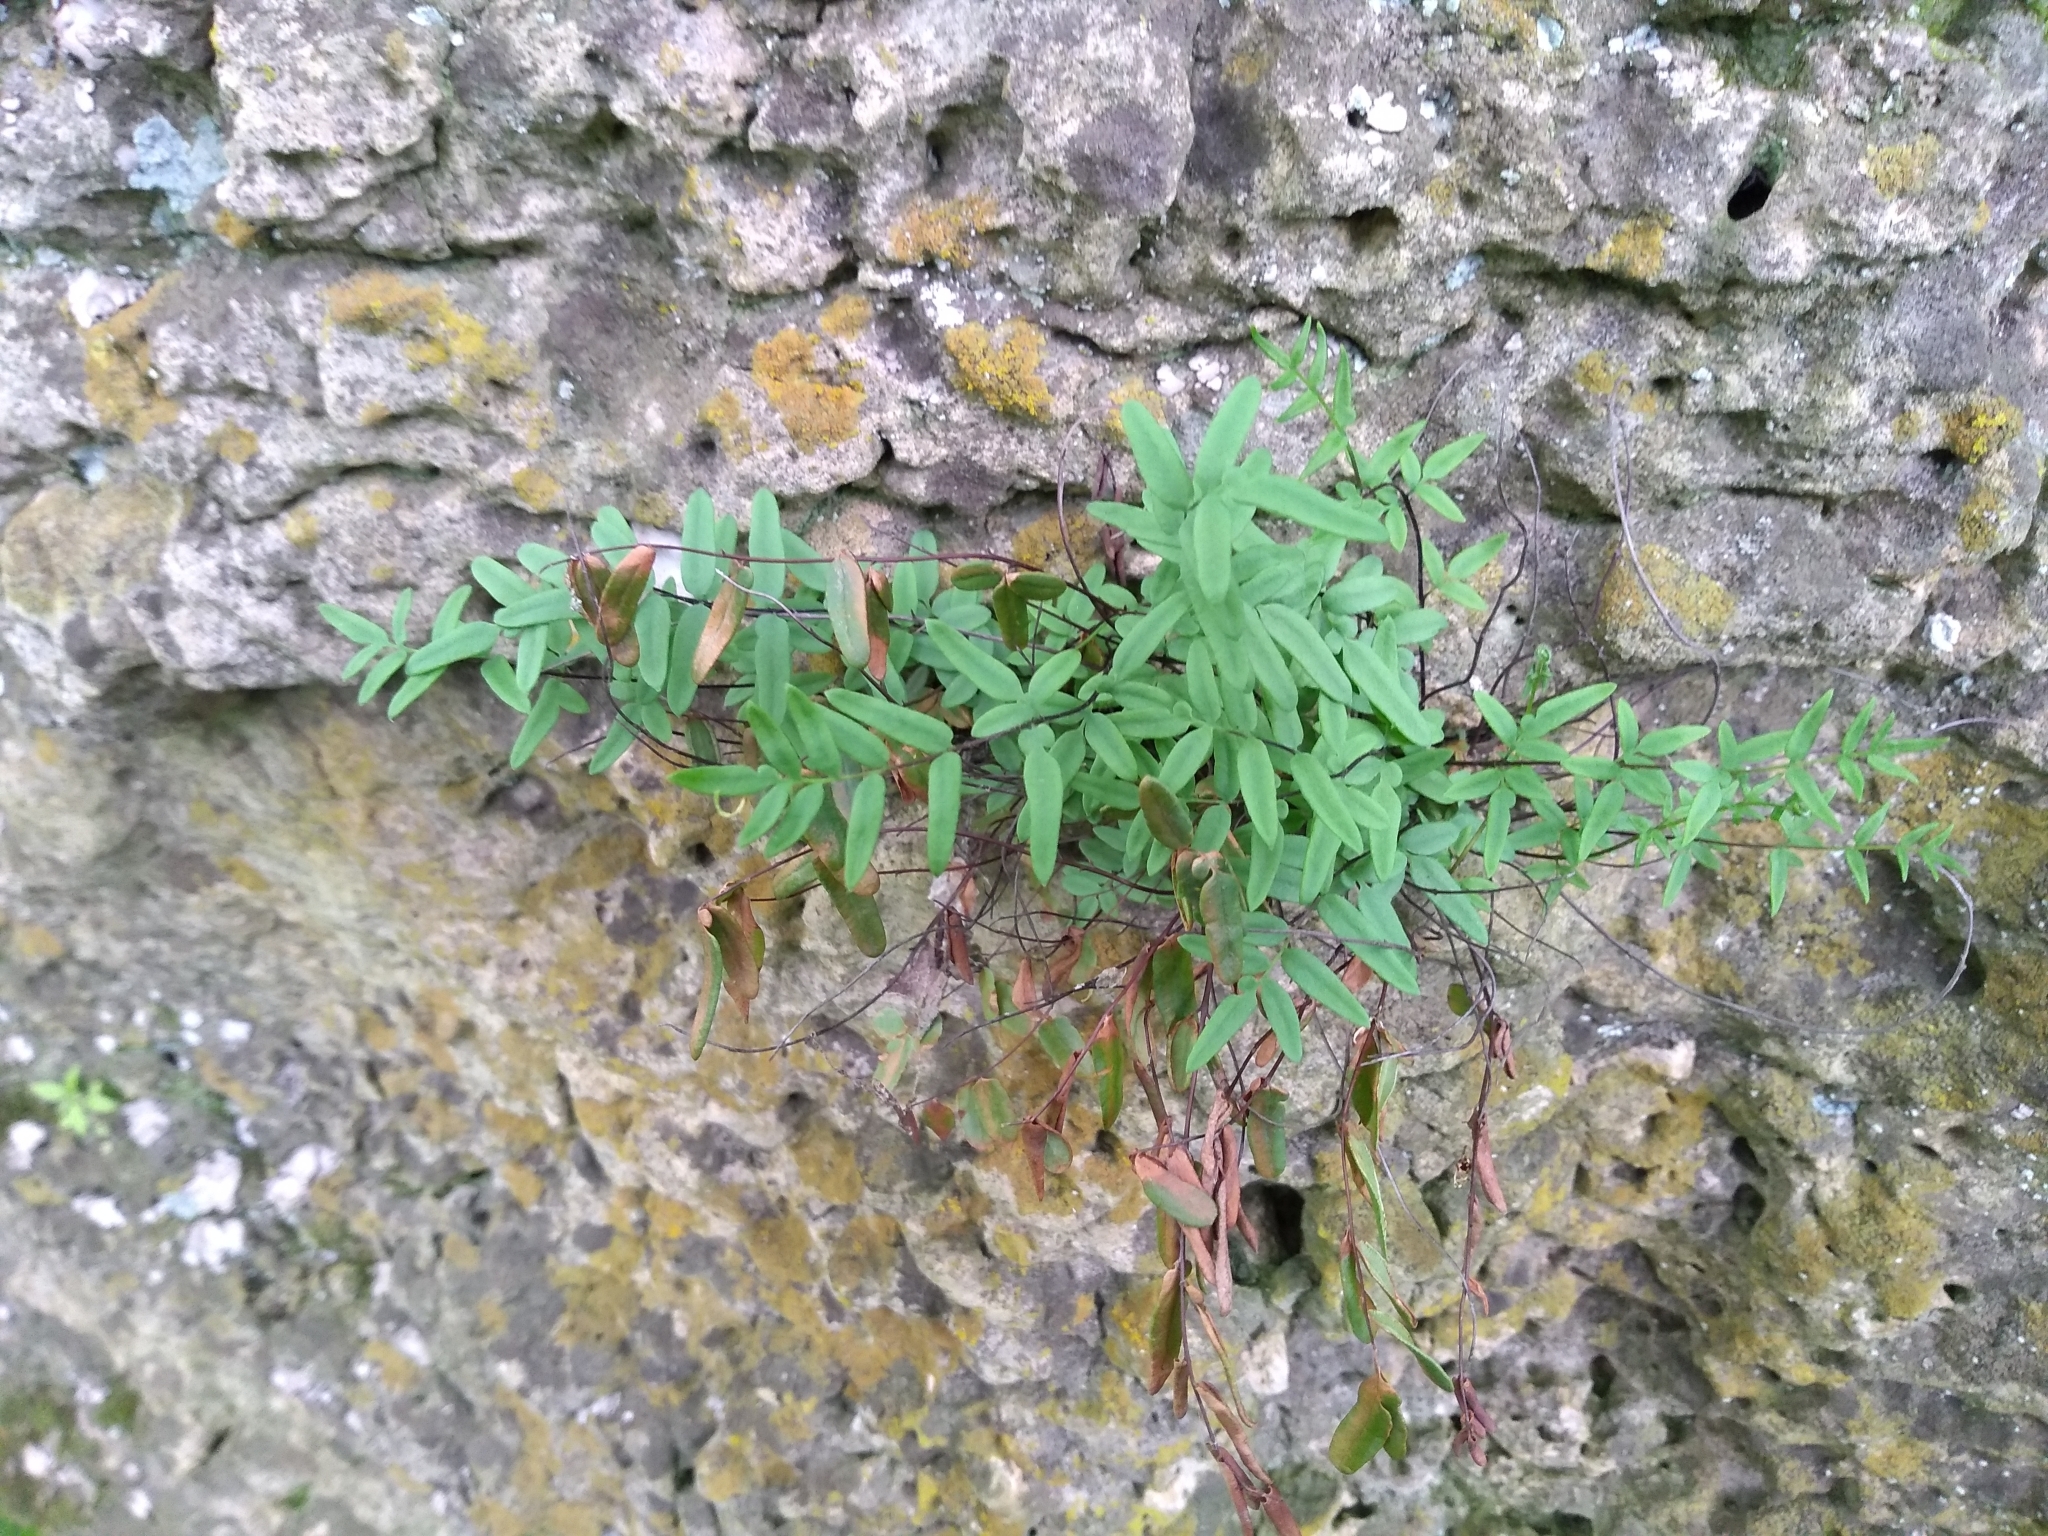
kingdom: Plantae
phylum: Tracheophyta
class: Polypodiopsida
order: Polypodiales
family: Pteridaceae
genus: Pellaea
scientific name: Pellaea glabella
